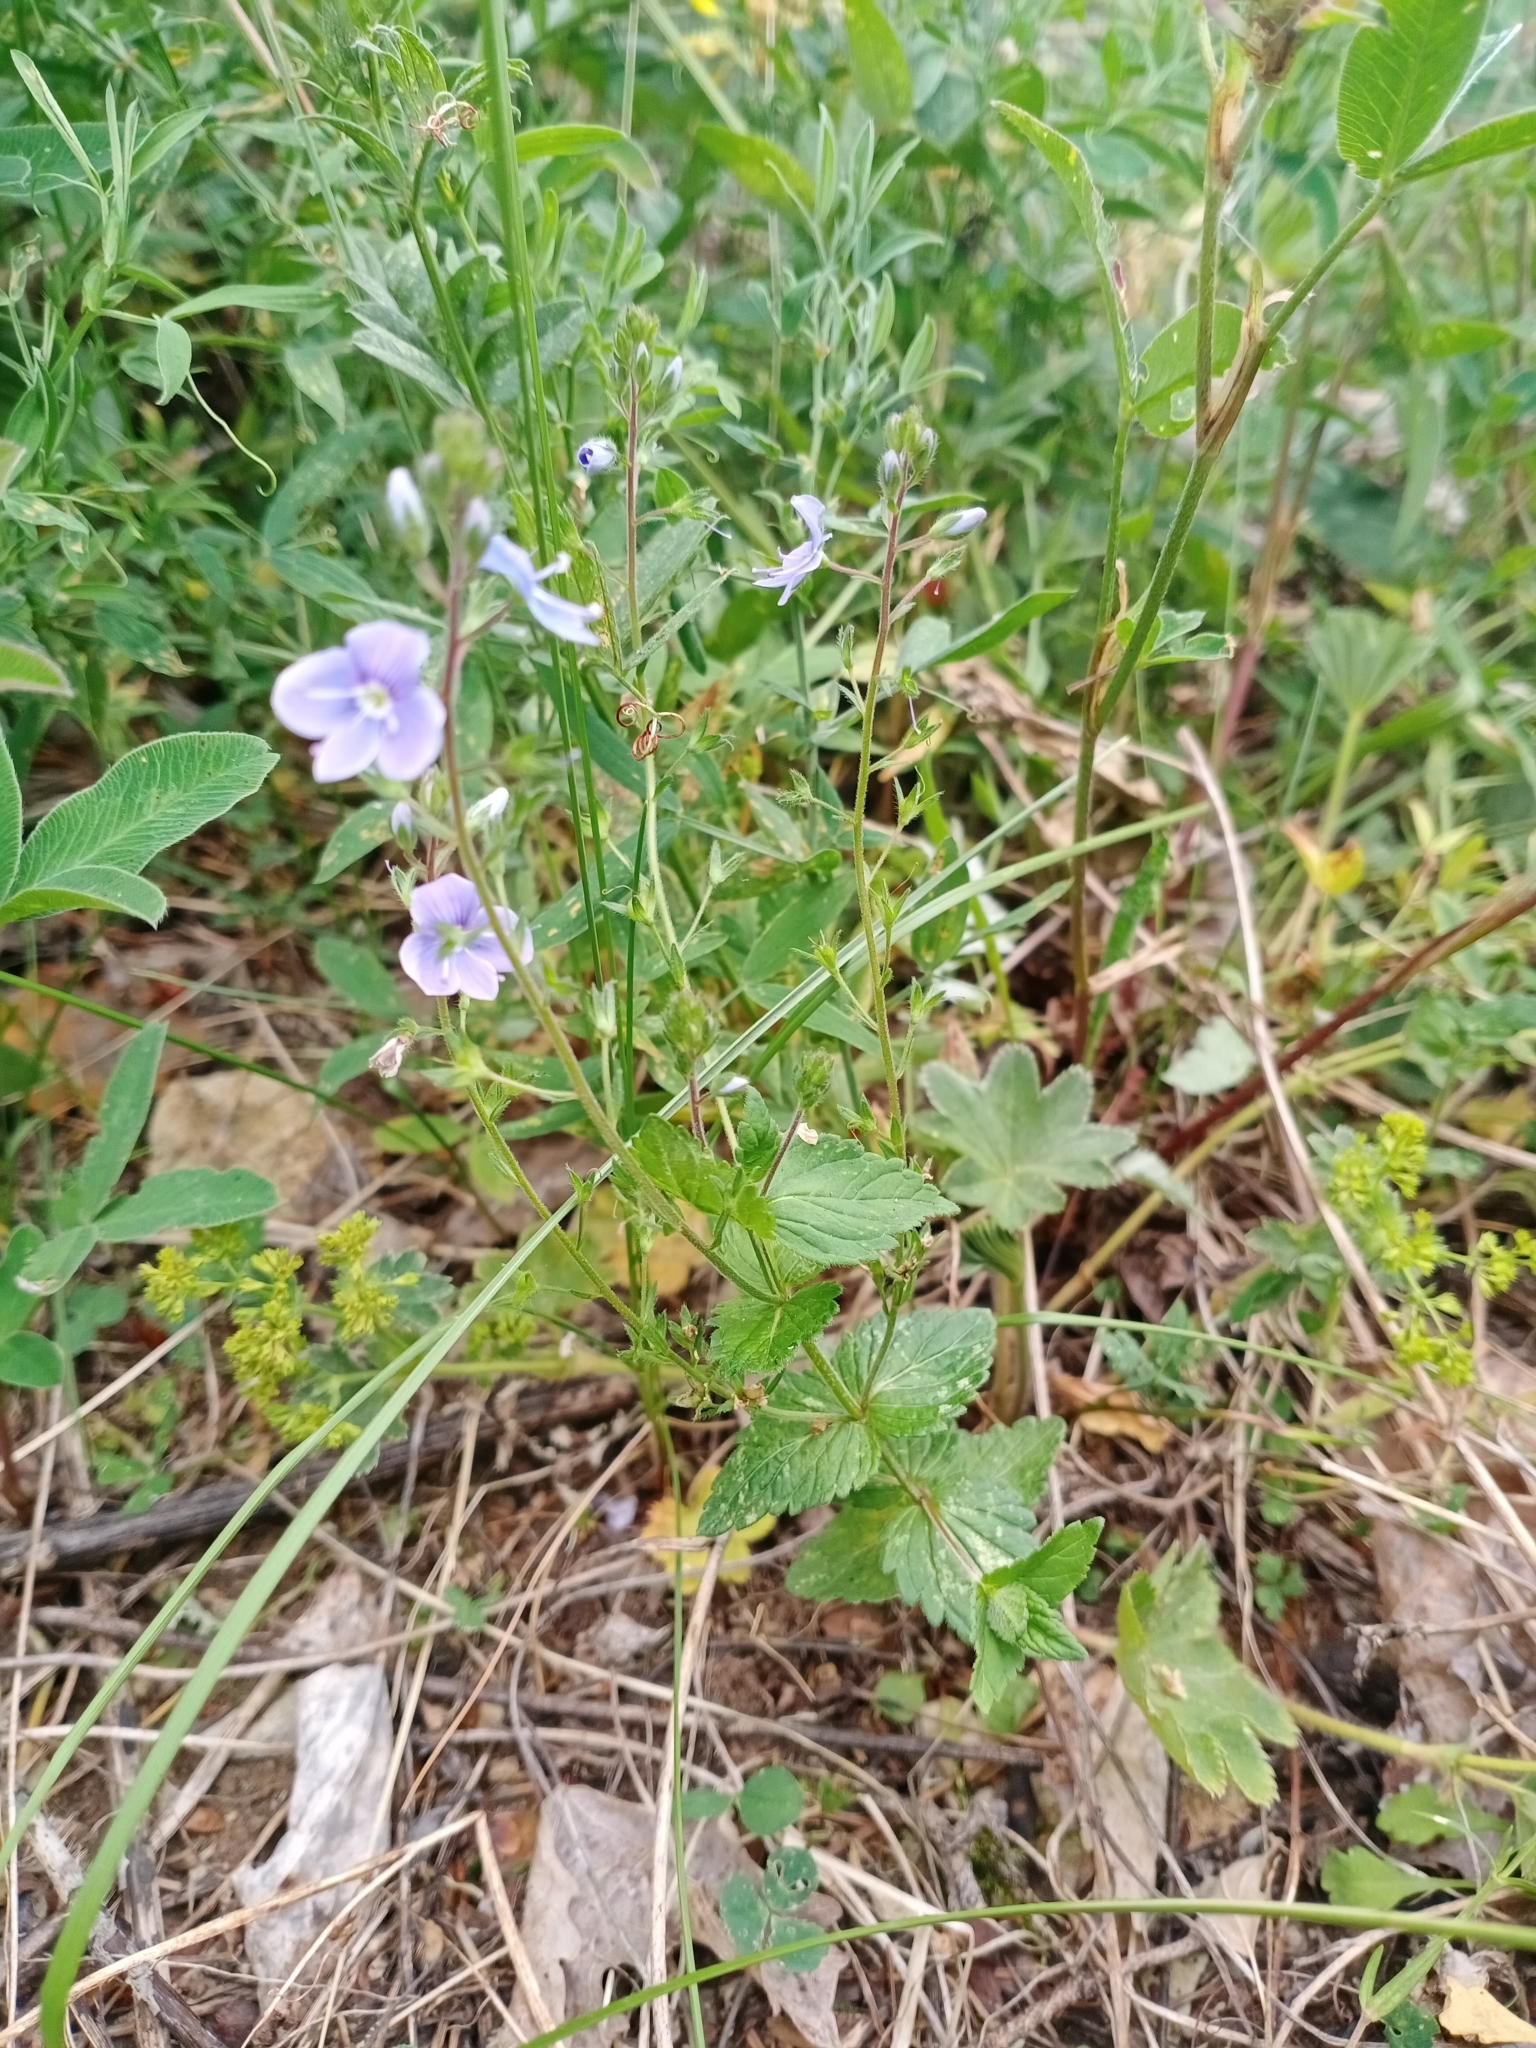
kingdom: Plantae
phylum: Tracheophyta
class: Magnoliopsida
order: Lamiales
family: Plantaginaceae
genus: Veronica
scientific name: Veronica chamaedrys
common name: Germander speedwell
